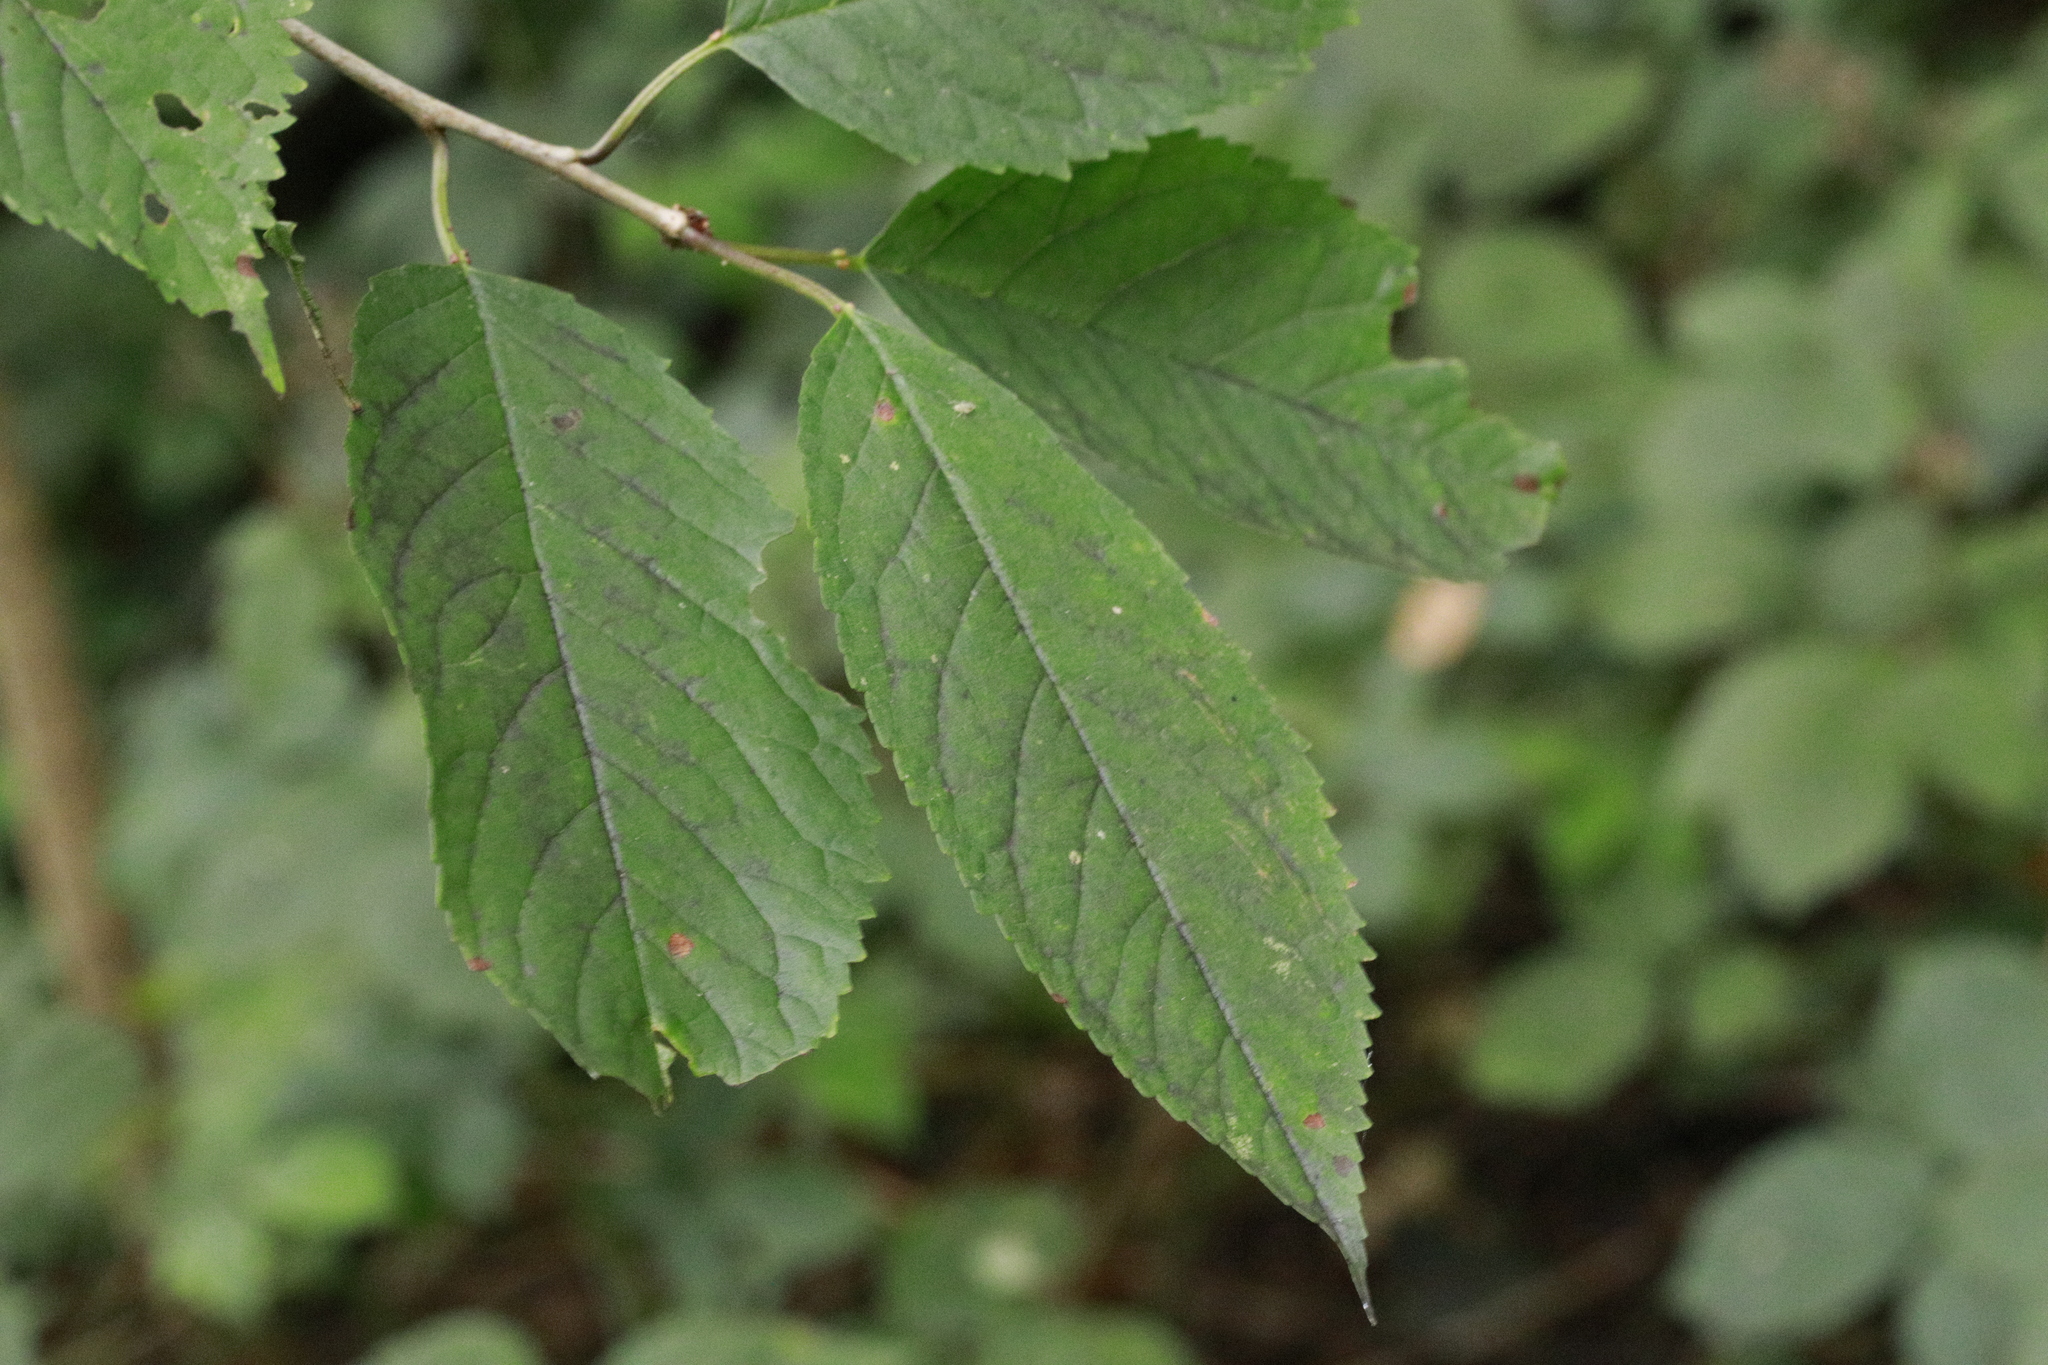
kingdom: Plantae
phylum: Tracheophyta
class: Magnoliopsida
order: Rosales
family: Rosaceae
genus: Prunus
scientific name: Prunus avium
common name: Sweet cherry
